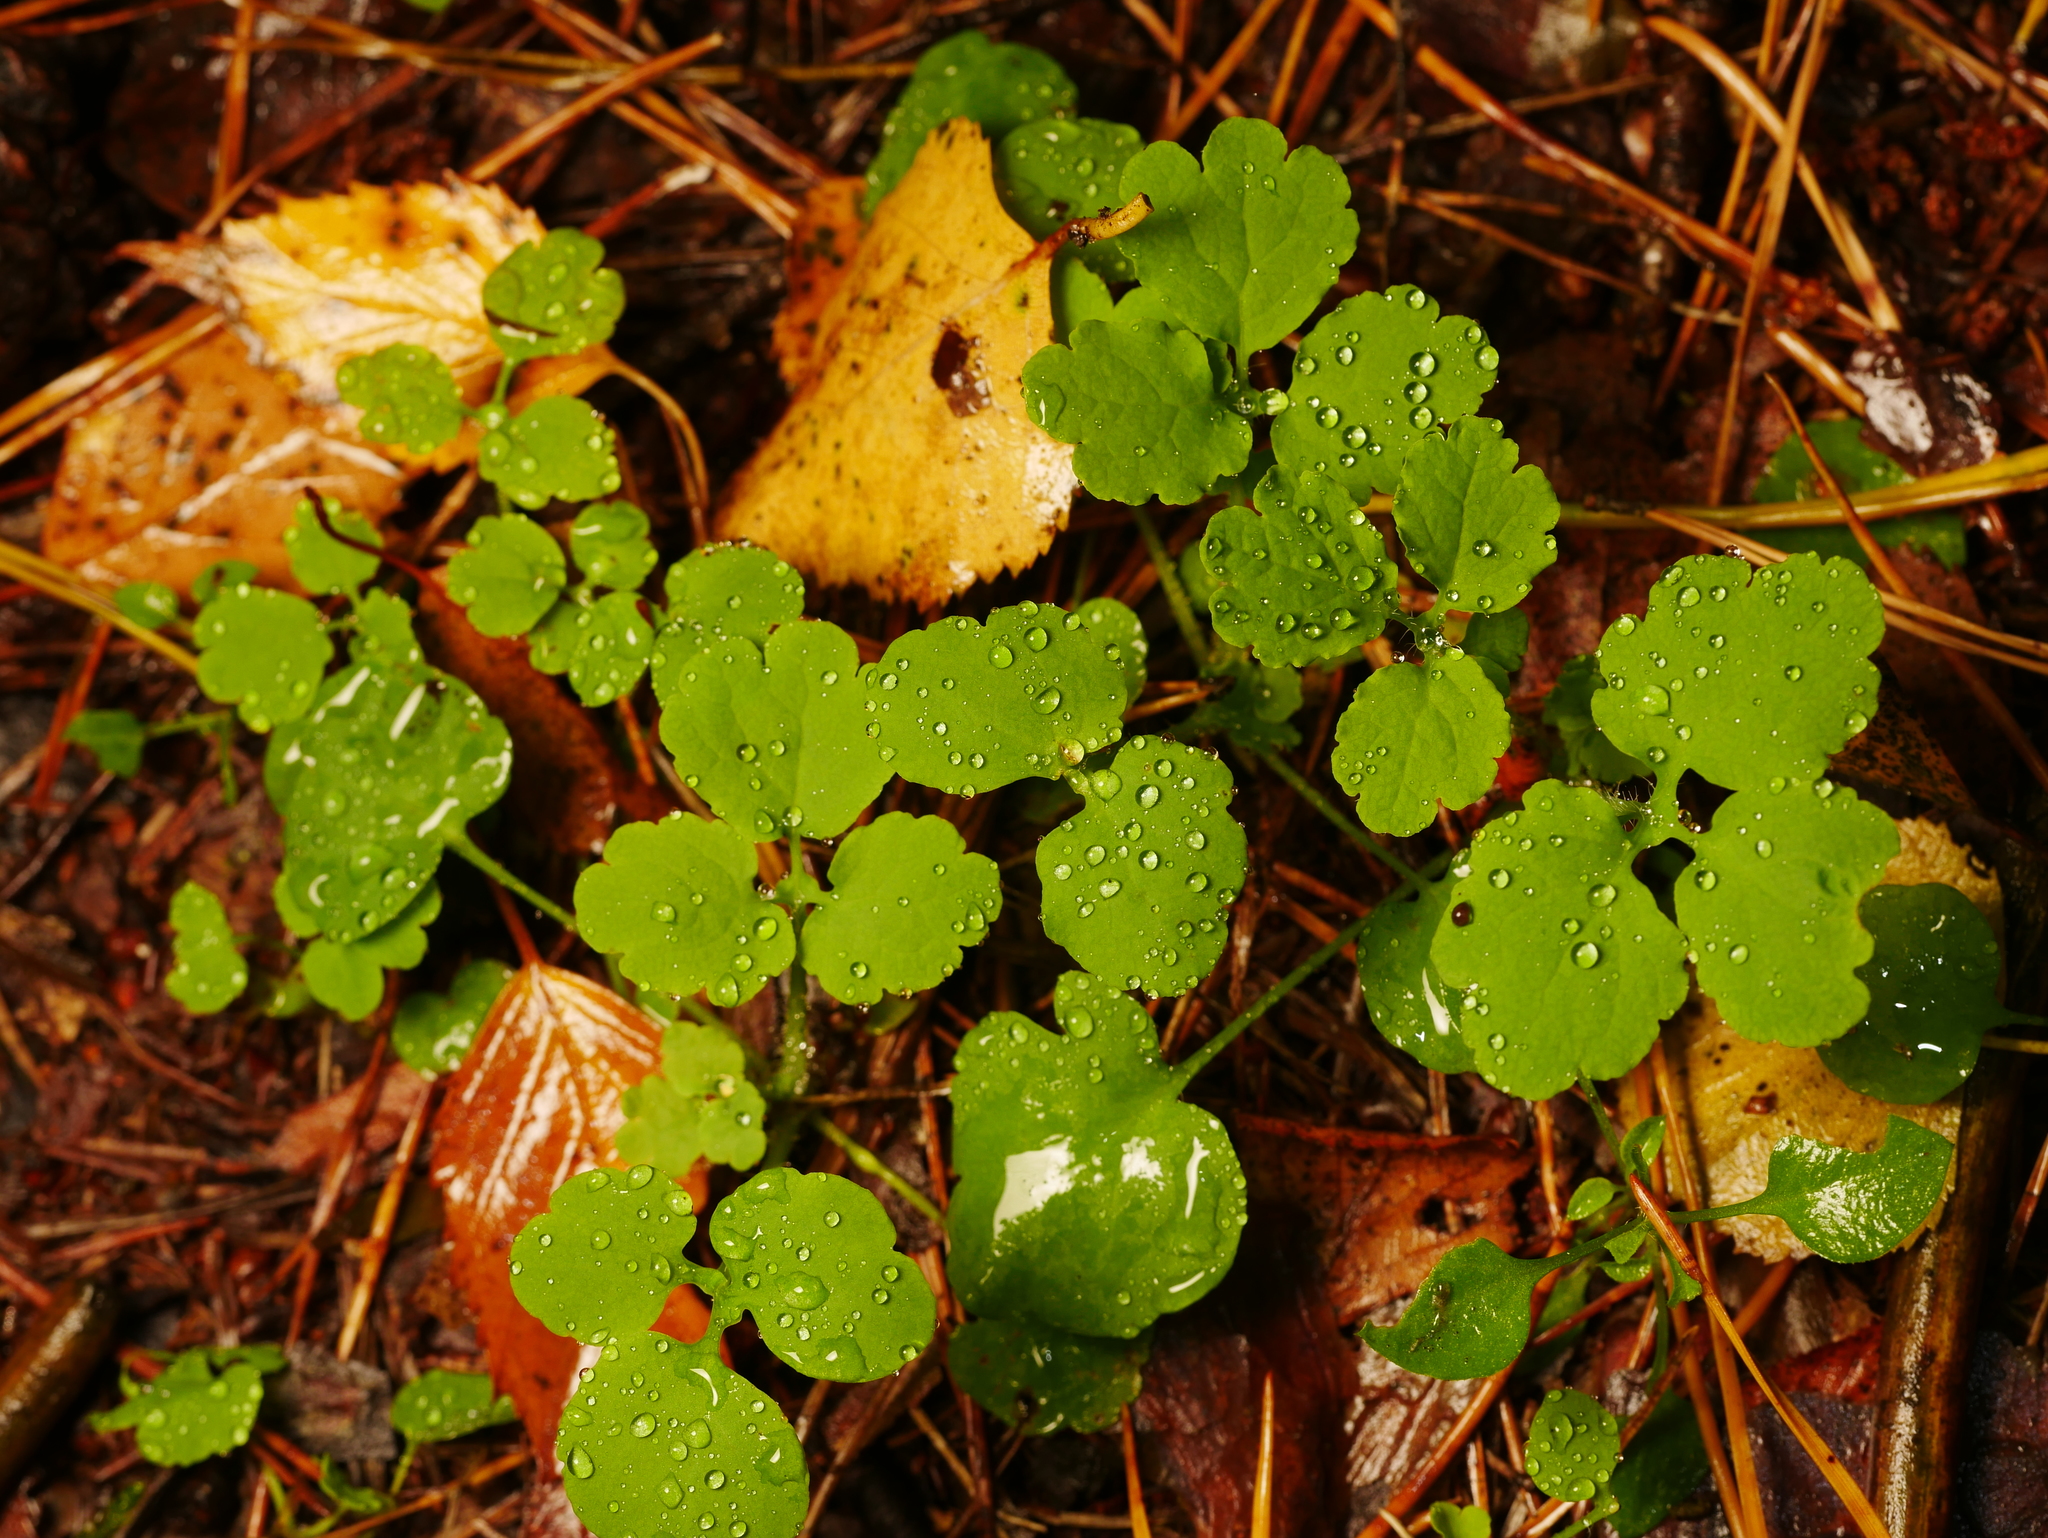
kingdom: Plantae
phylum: Tracheophyta
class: Magnoliopsida
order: Ranunculales
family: Papaveraceae
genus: Chelidonium
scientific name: Chelidonium majus
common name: Greater celandine
